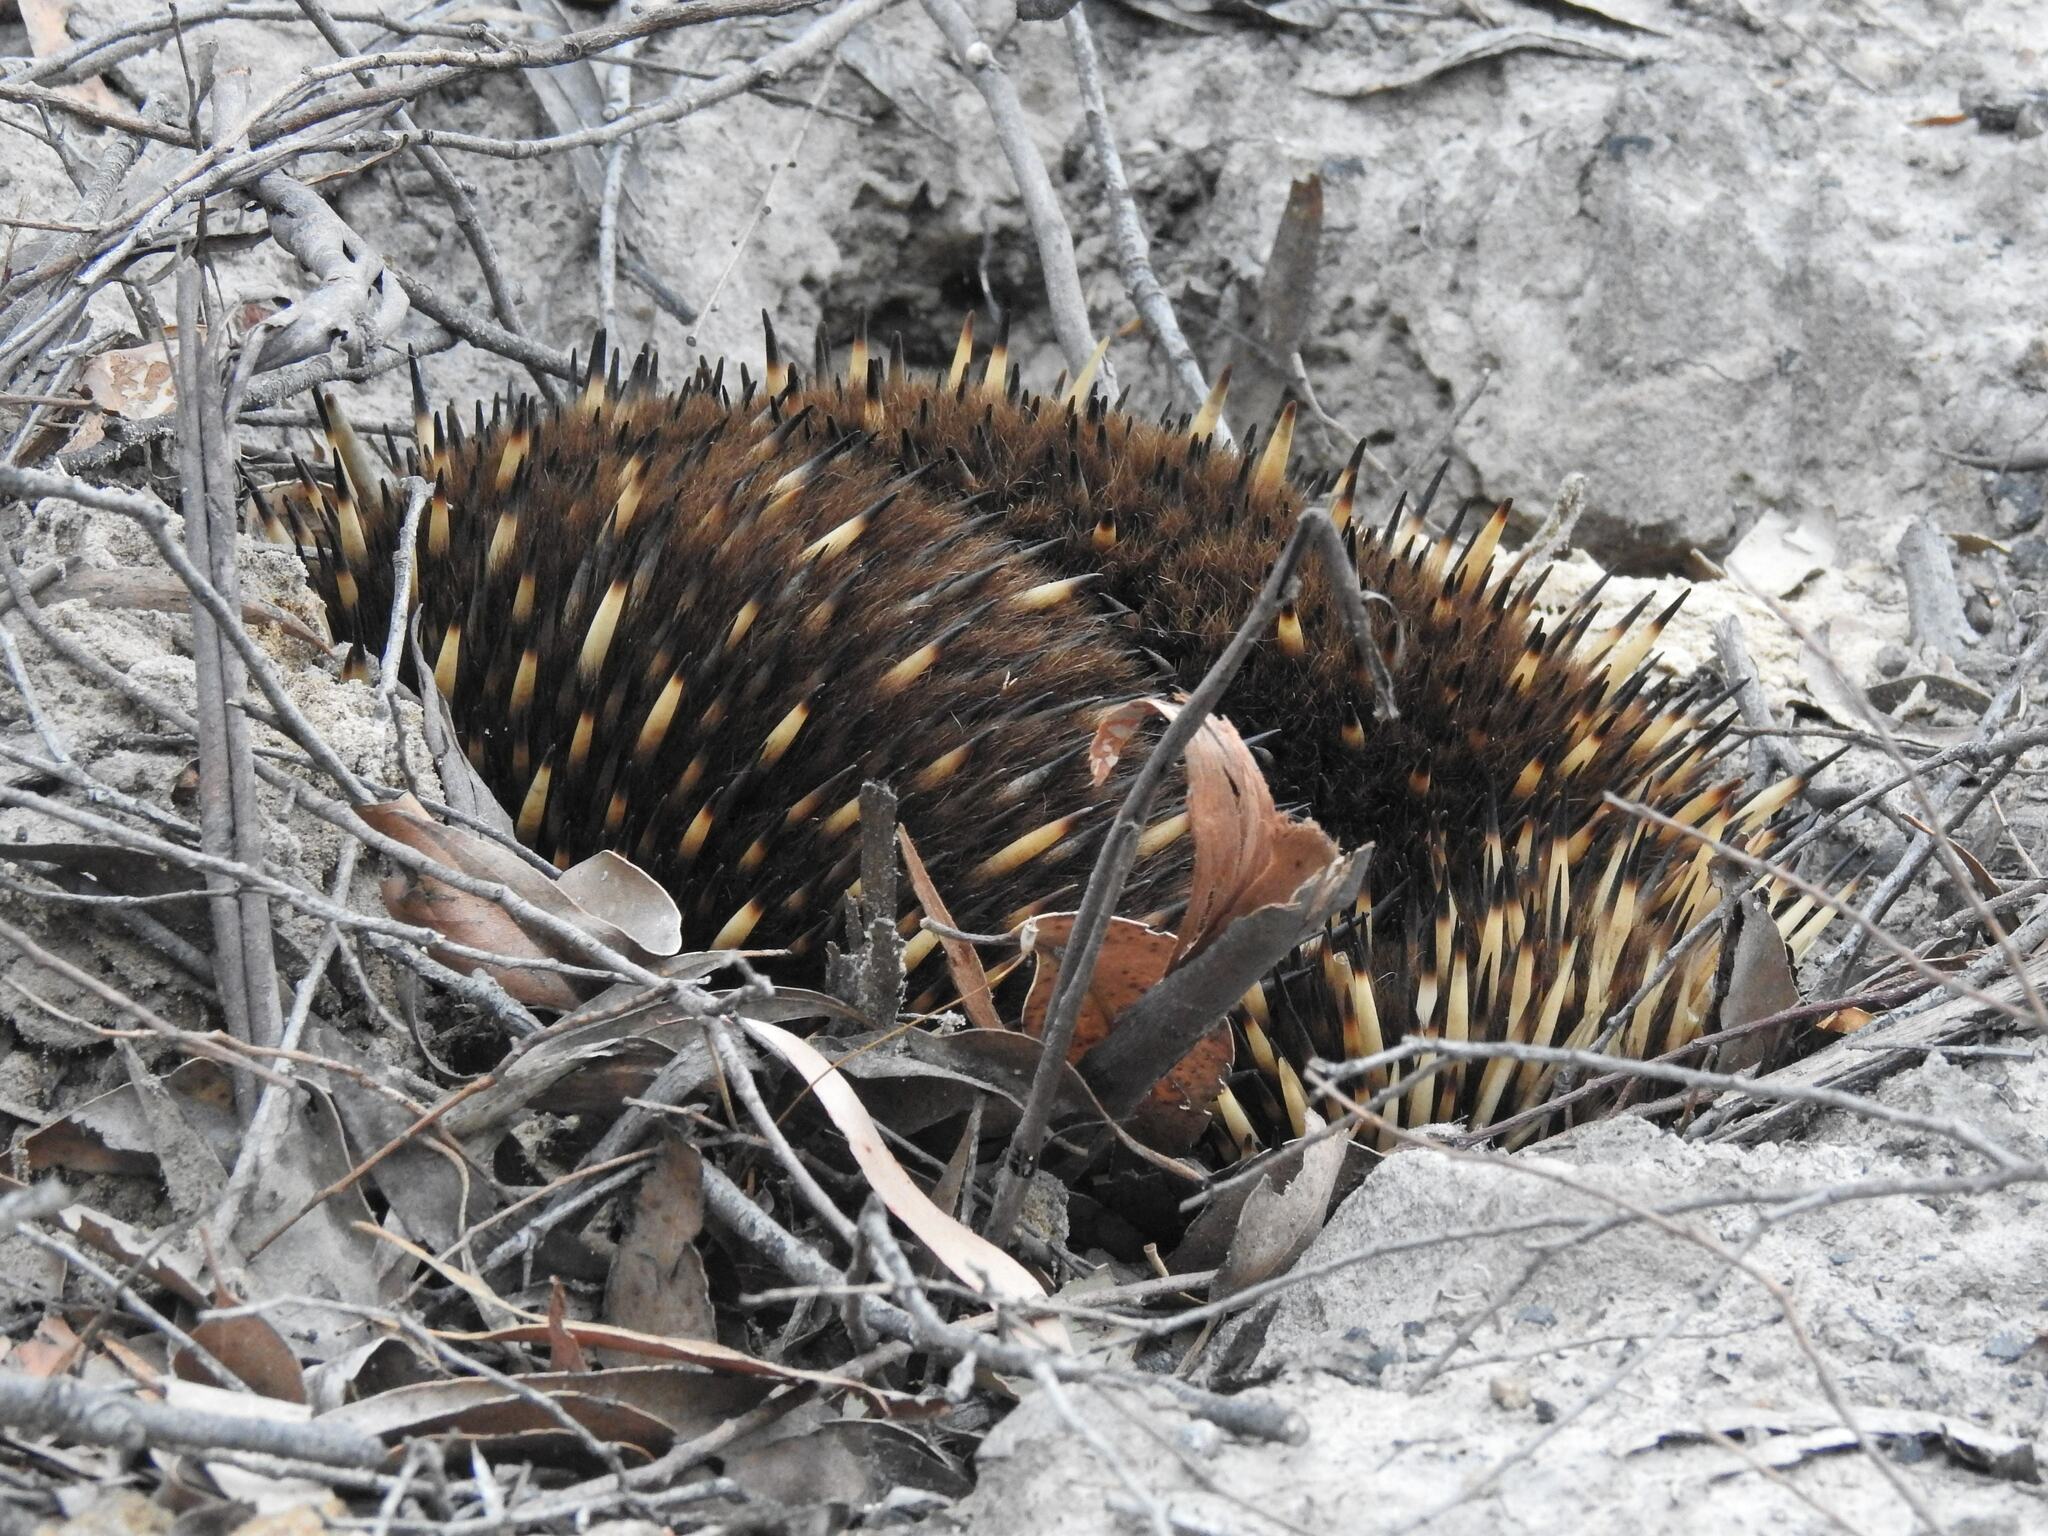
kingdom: Animalia
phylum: Chordata
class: Mammalia
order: Monotremata
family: Tachyglossidae
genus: Tachyglossus
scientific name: Tachyglossus aculeatus
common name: Short-beaked echidna
